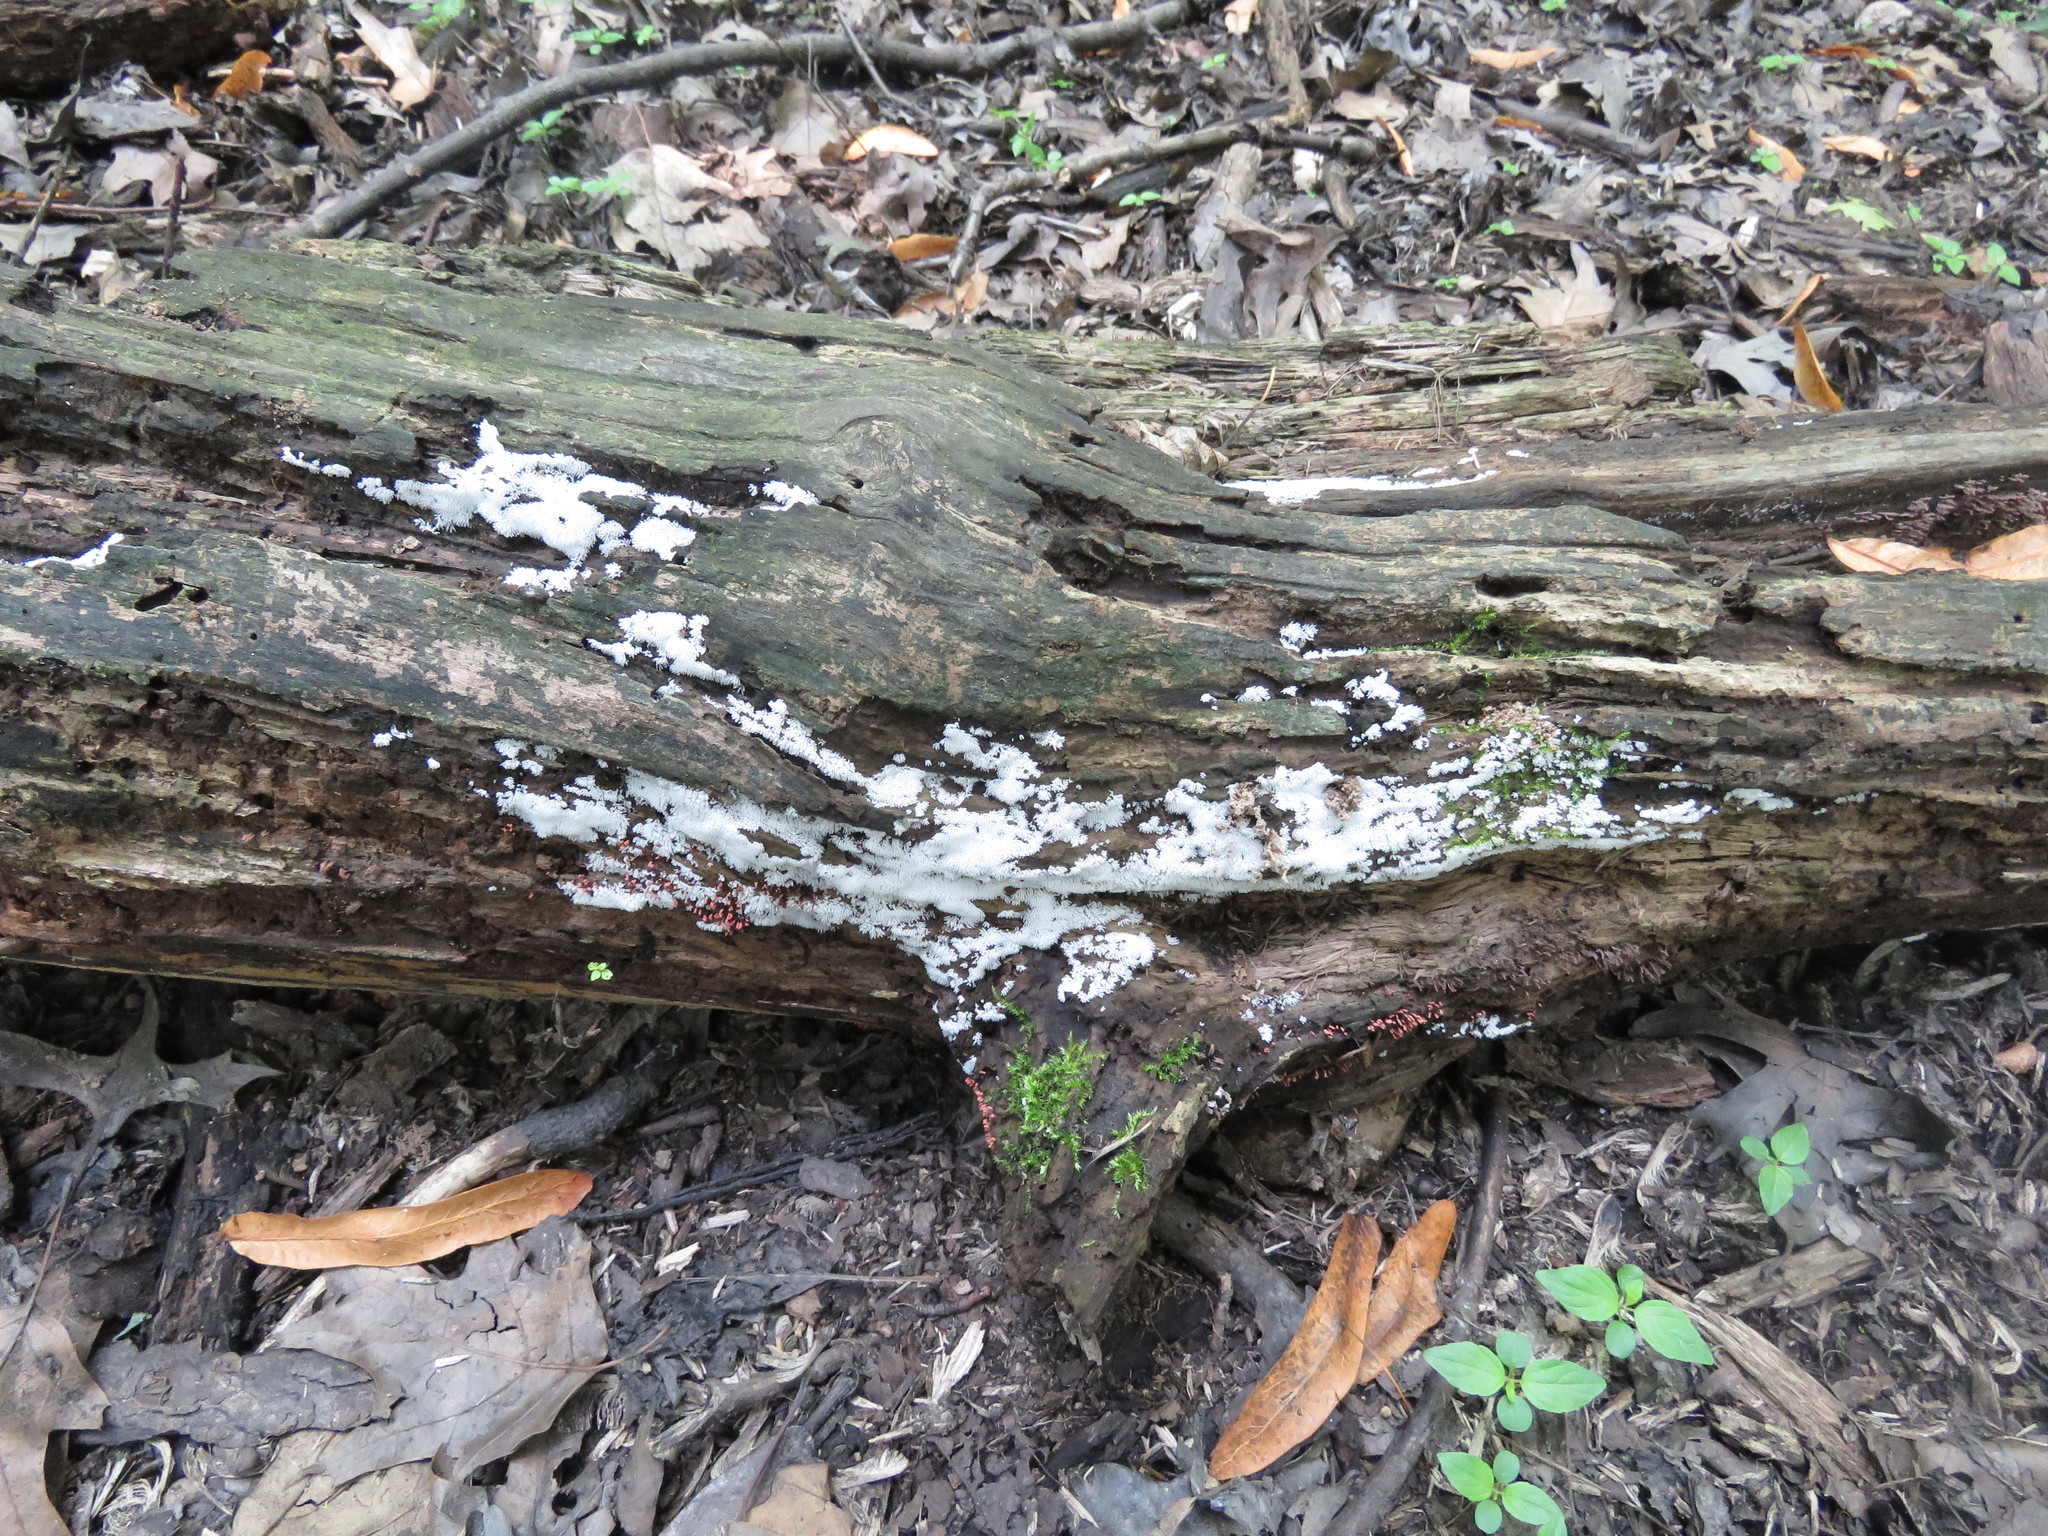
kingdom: Protozoa
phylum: Mycetozoa
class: Protosteliomycetes
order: Ceratiomyxales
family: Ceratiomyxaceae
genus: Ceratiomyxa
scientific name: Ceratiomyxa fruticulosa
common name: Honeycomb coral slime mold
